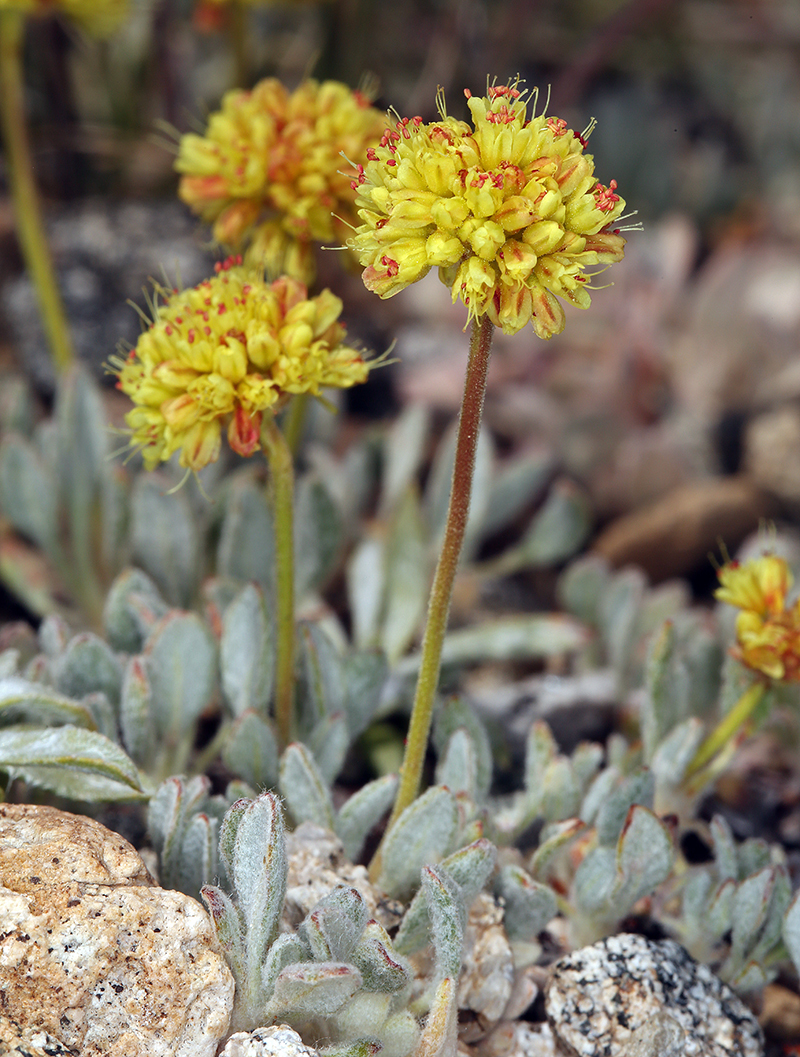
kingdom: Plantae
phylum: Tracheophyta
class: Magnoliopsida
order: Caryophyllales
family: Polygonaceae
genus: Eriogonum
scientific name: Eriogonum rosense
